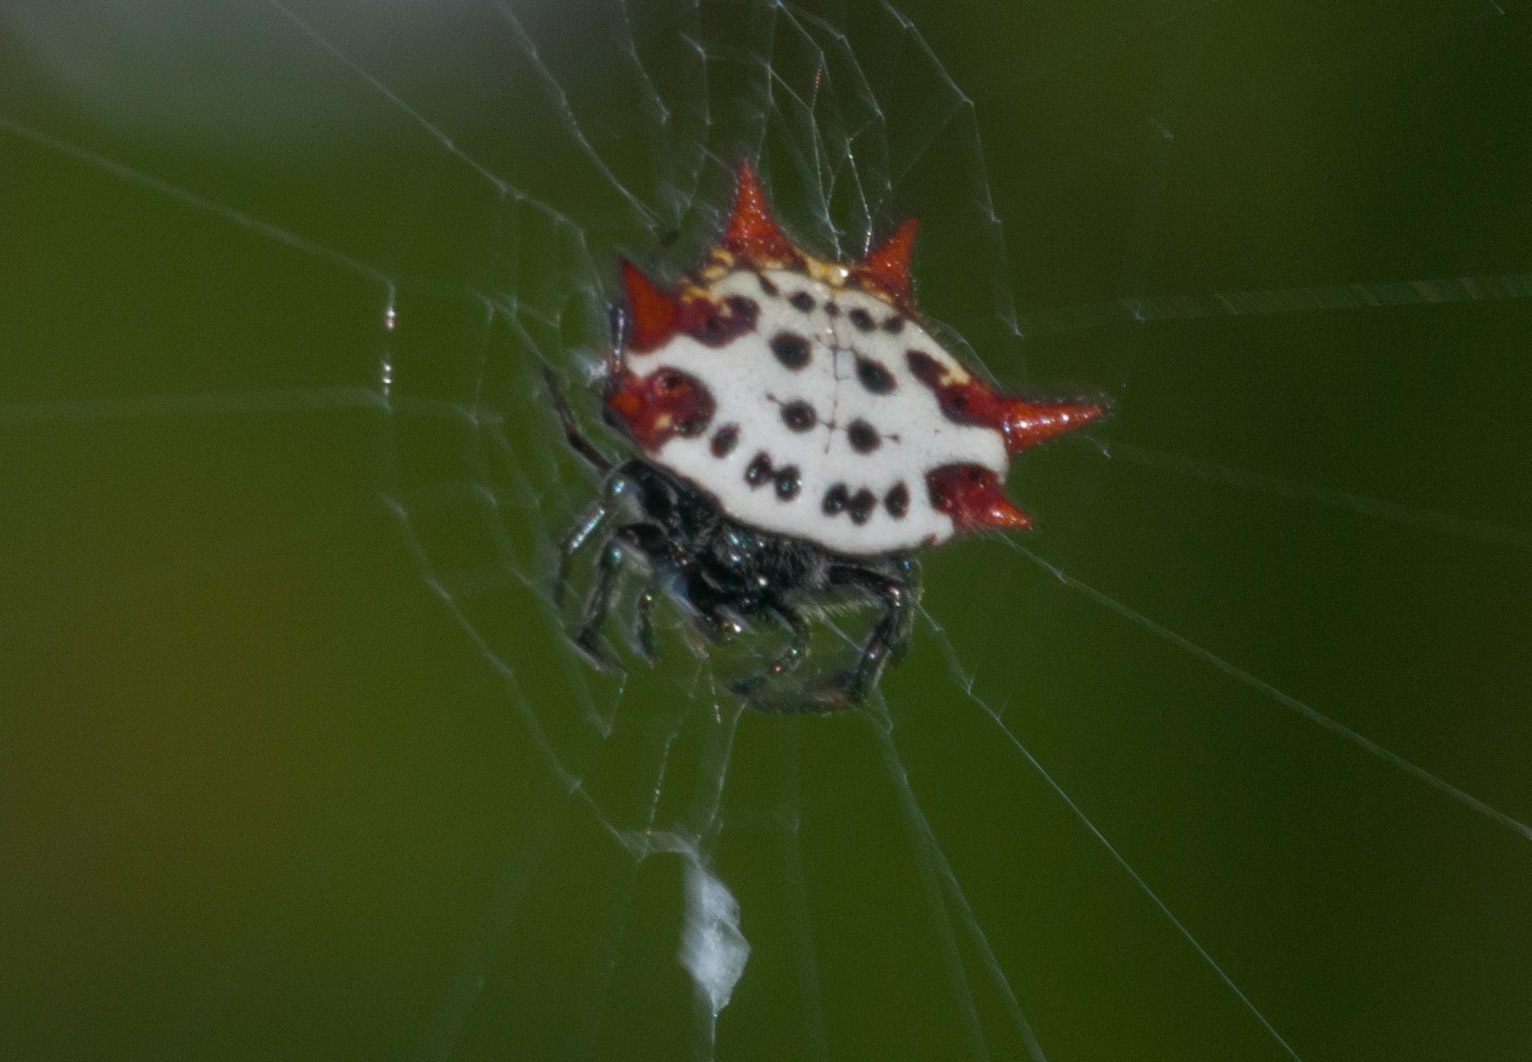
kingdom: Animalia
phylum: Arthropoda
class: Arachnida
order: Araneae
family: Araneidae
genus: Gasteracantha
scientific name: Gasteracantha cancriformis
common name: Orb weavers
